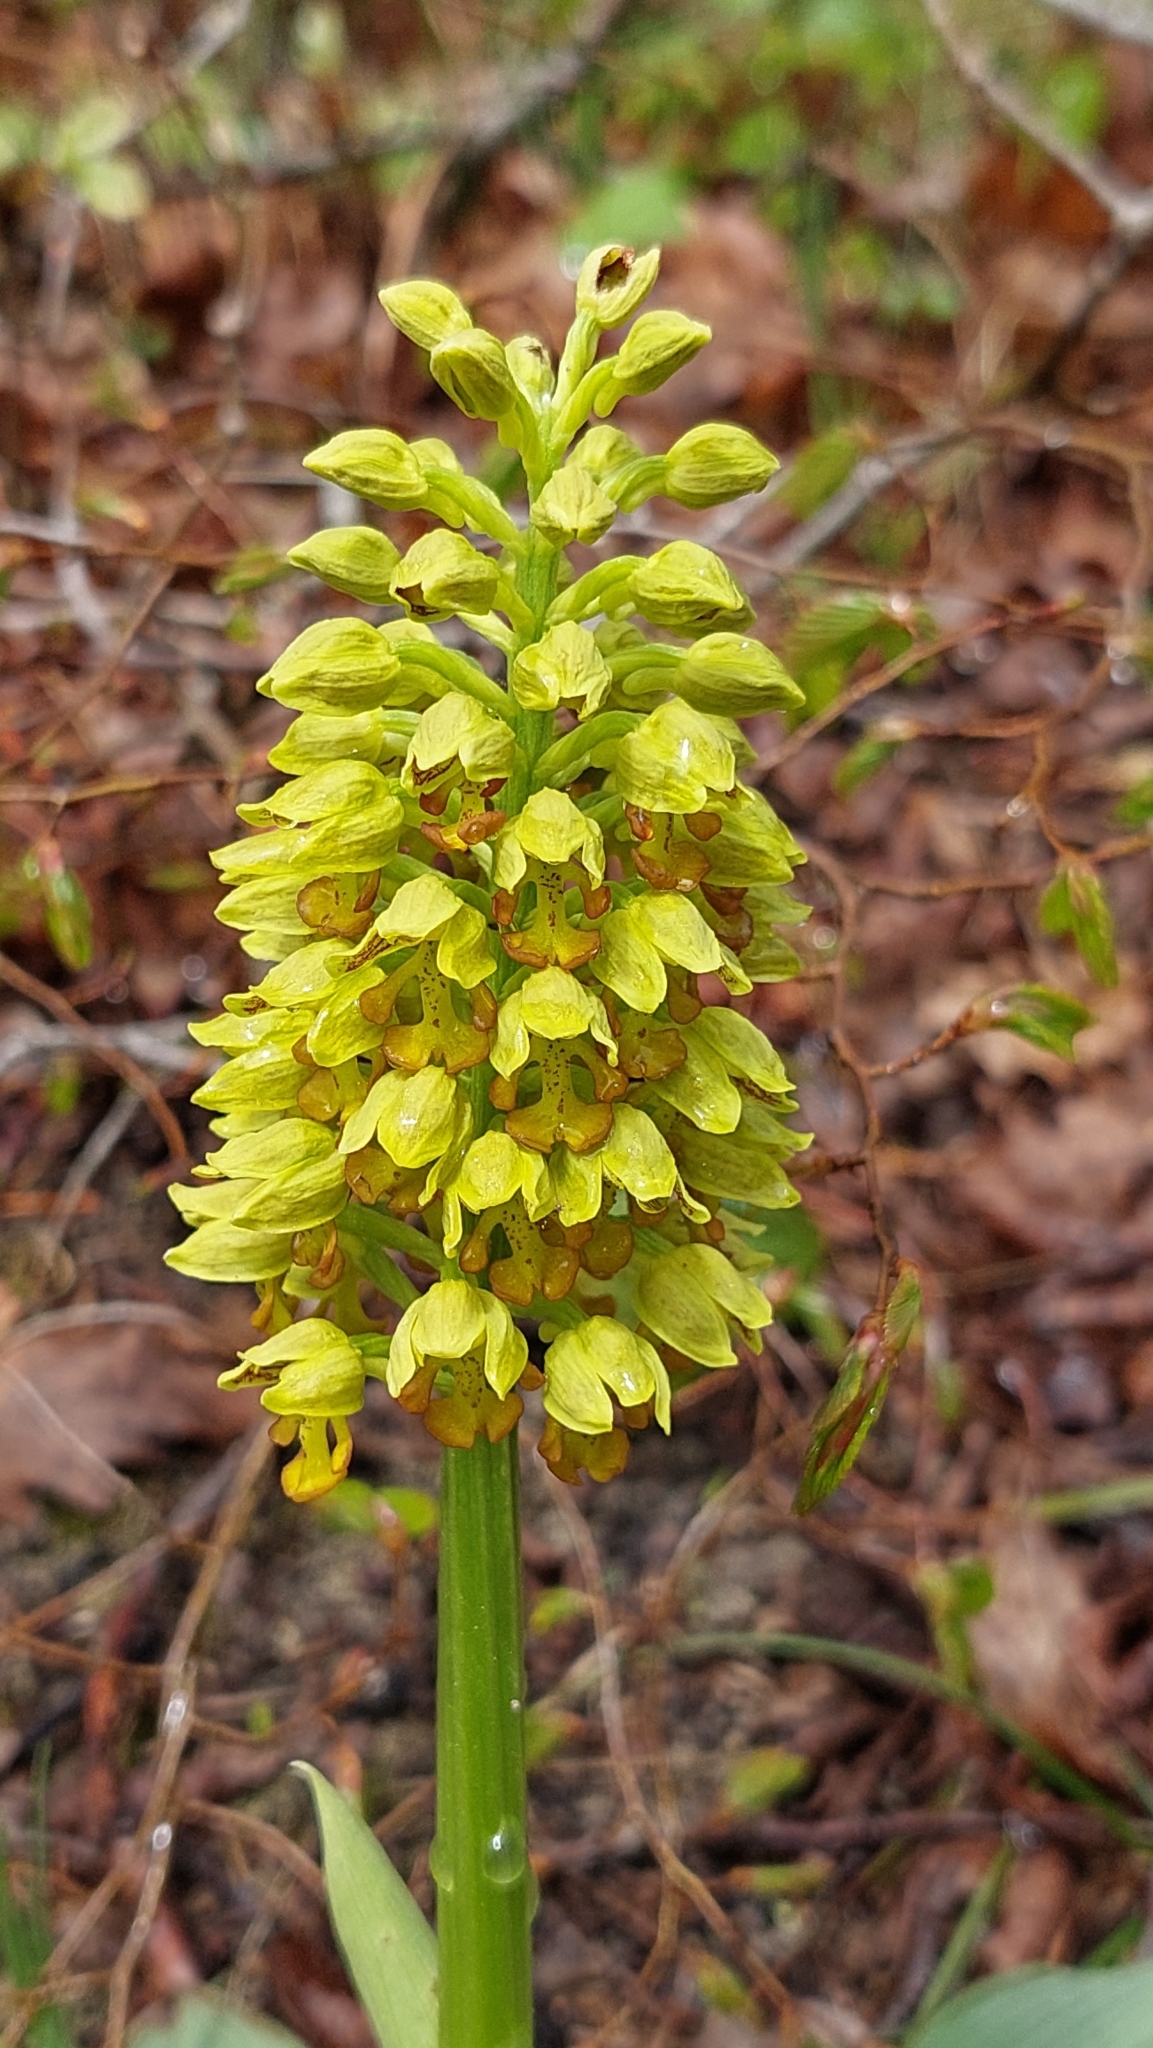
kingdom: Plantae
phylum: Tracheophyta
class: Liliopsida
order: Asparagales
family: Orchidaceae
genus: Orchis
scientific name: Orchis punctulata
